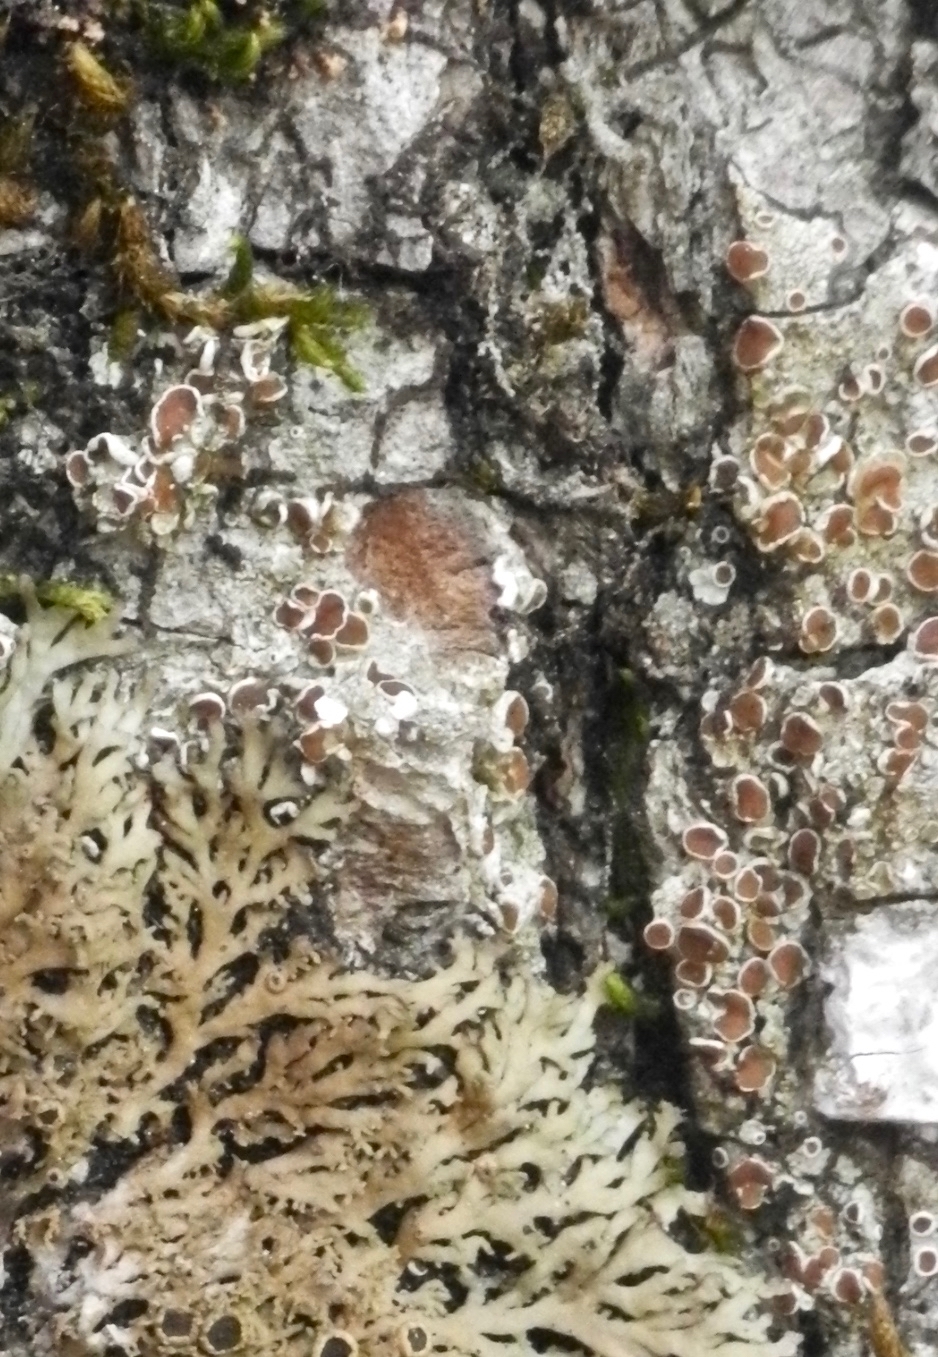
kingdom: Fungi
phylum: Ascomycota
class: Lecanoromycetes
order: Lecanorales
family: Lecanoraceae
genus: Lecanora
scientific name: Lecanora hybocarpa
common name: Bumpy rim-lichen
